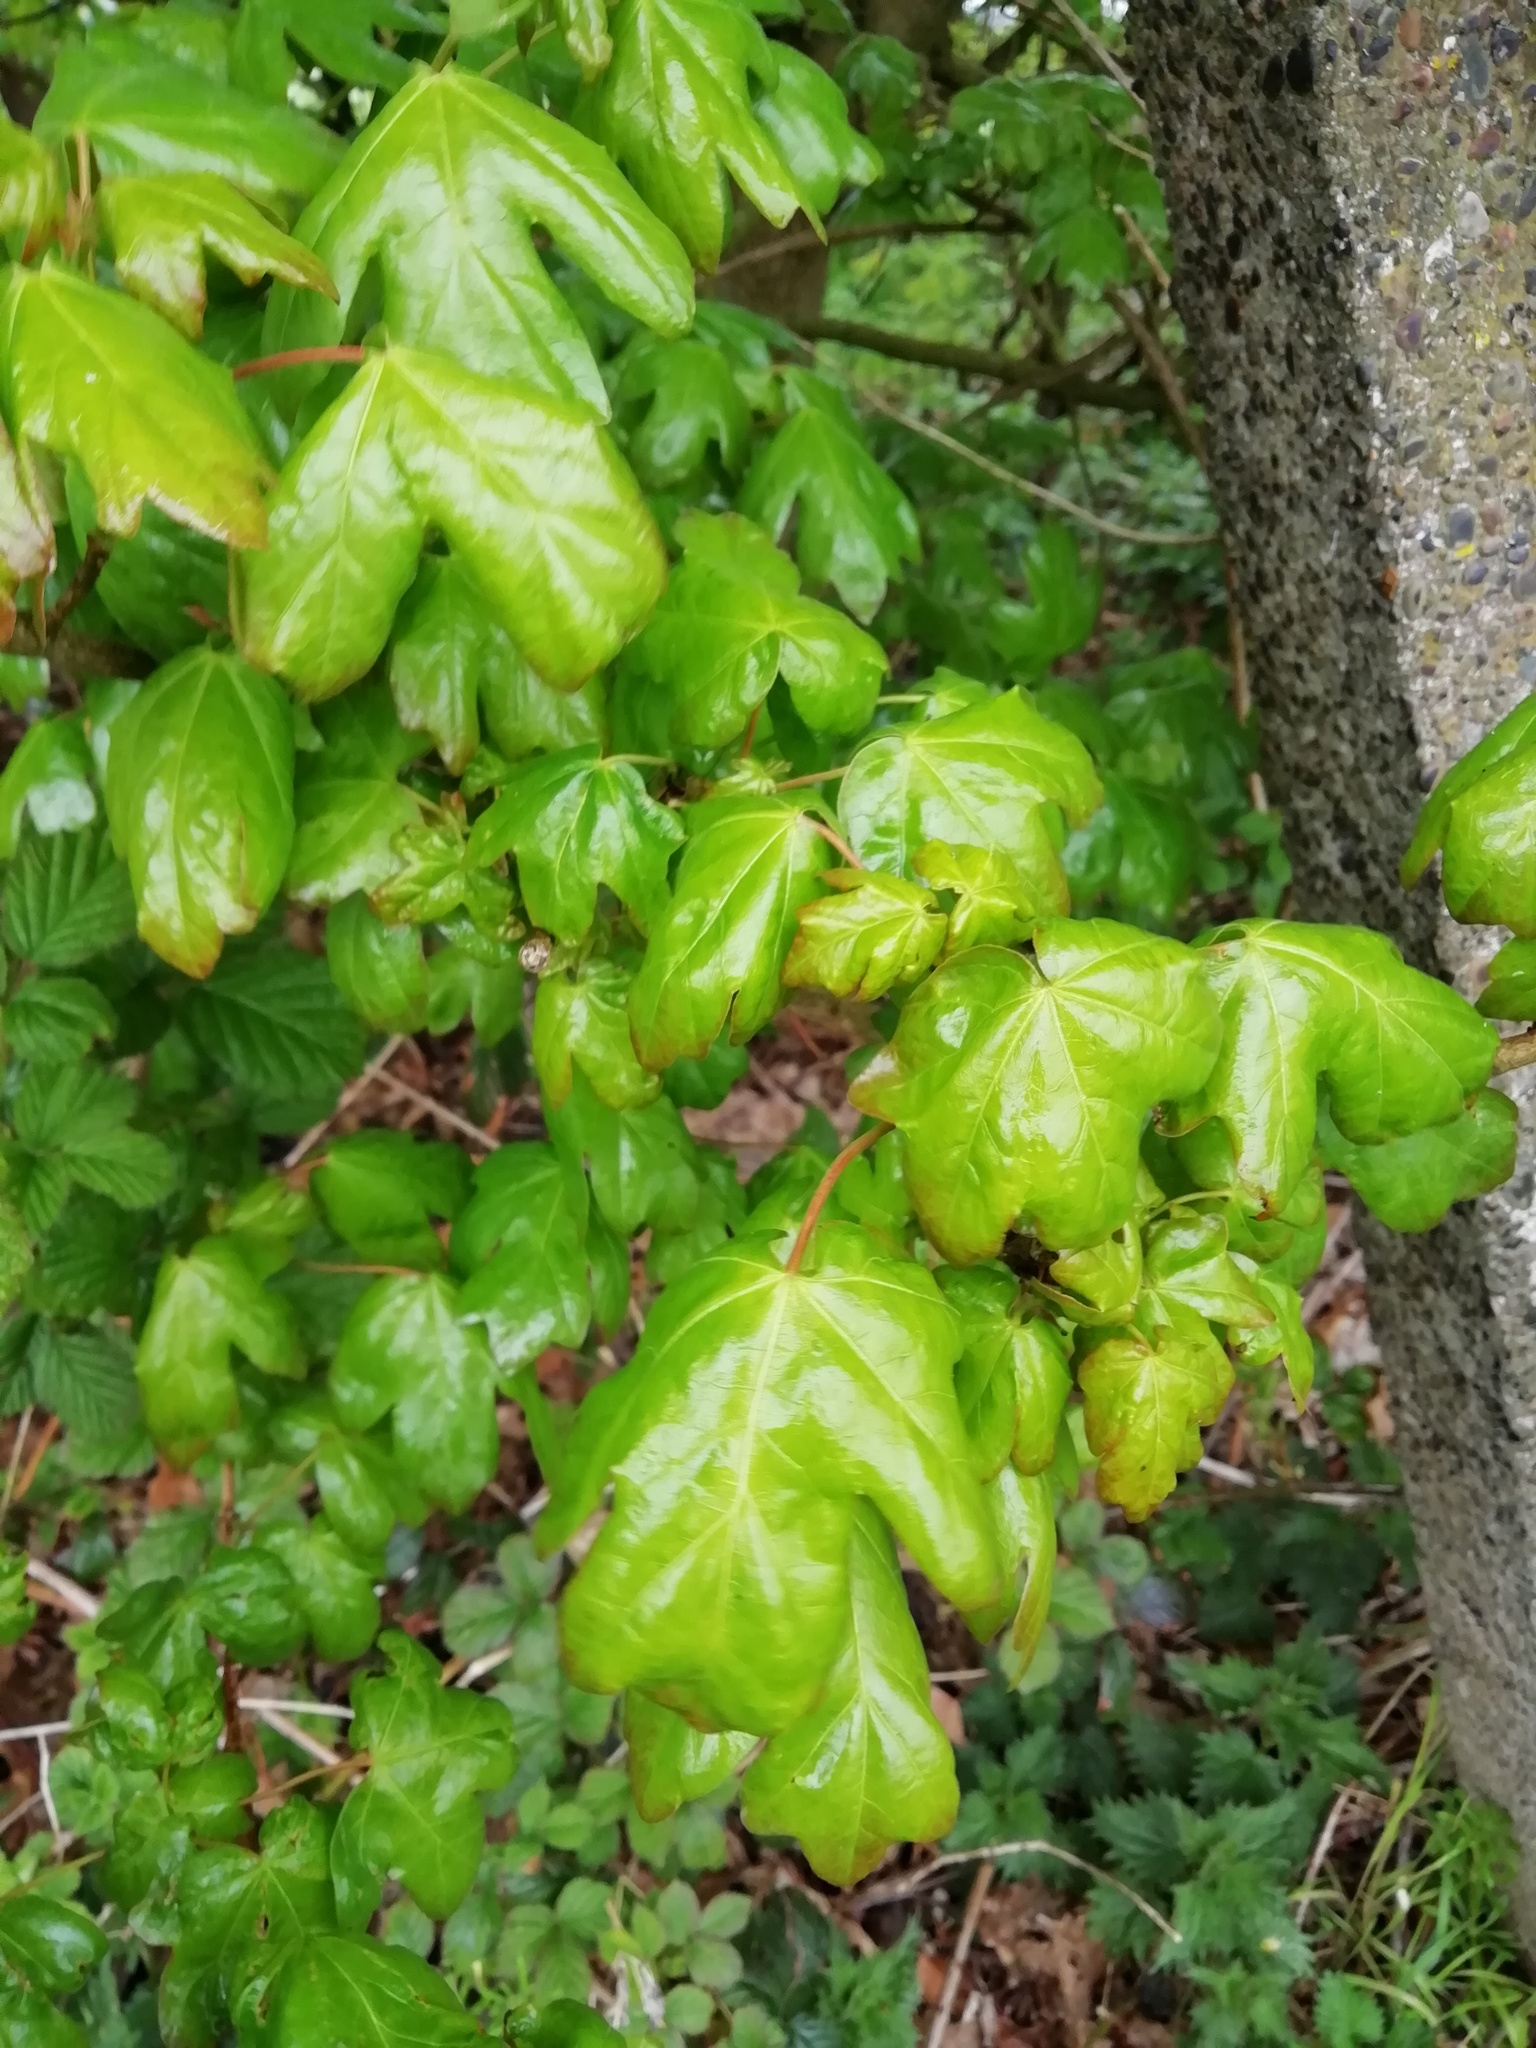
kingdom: Plantae
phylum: Tracheophyta
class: Magnoliopsida
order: Sapindales
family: Sapindaceae
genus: Acer
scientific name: Acer campestre
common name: Field maple
